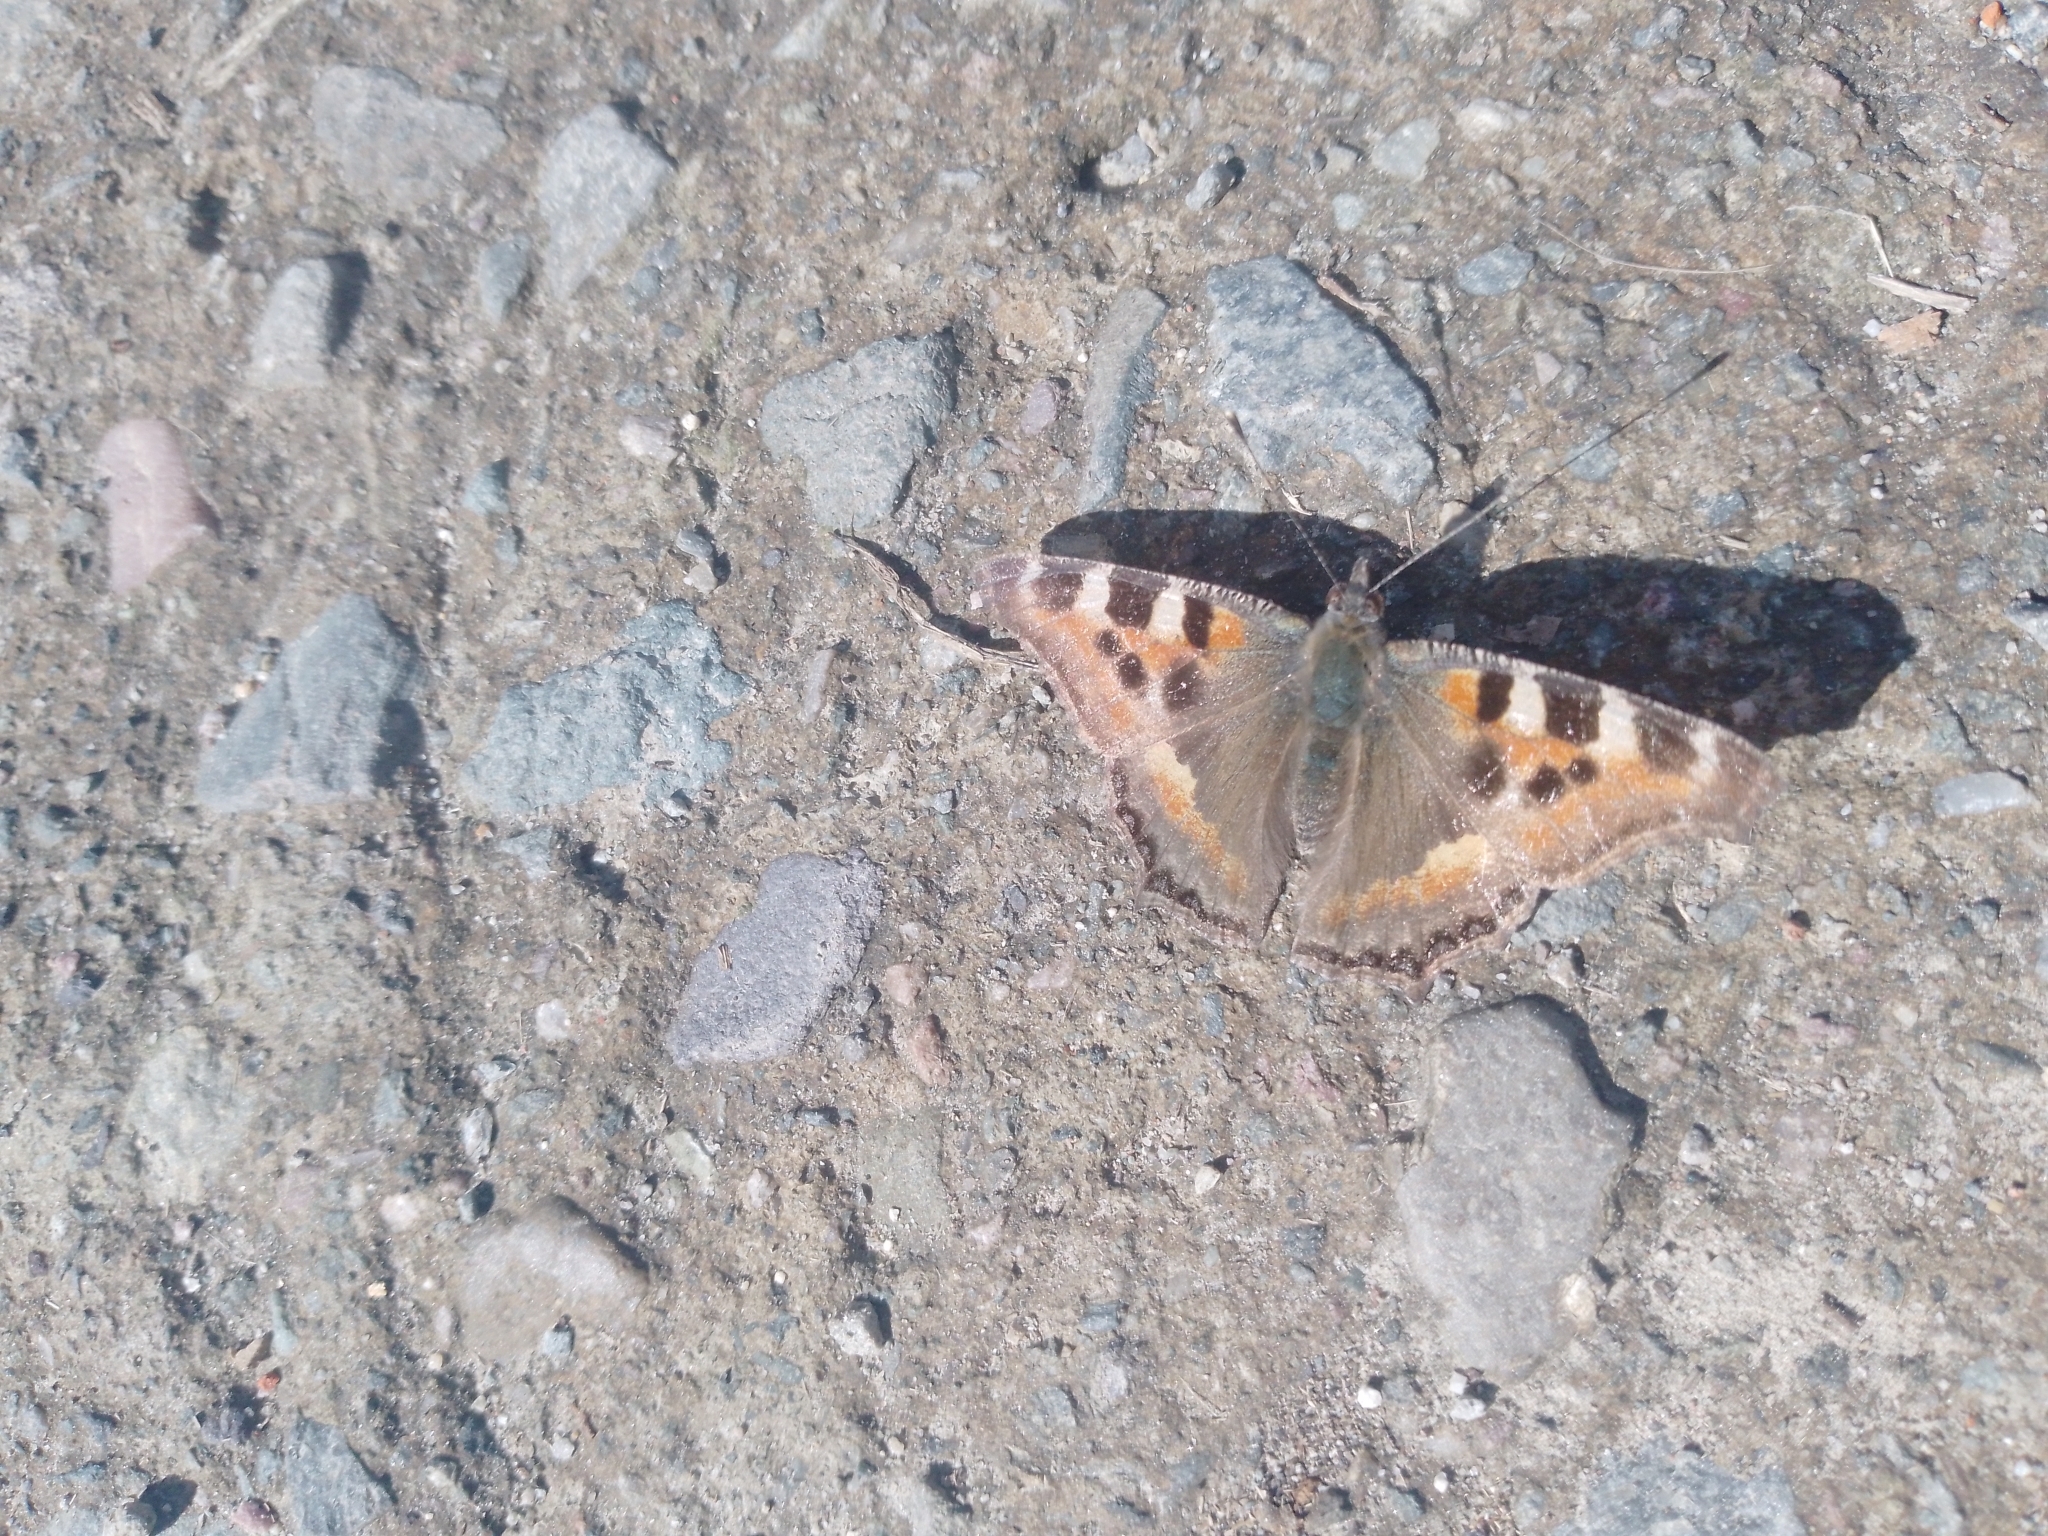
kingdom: Animalia
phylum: Arthropoda
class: Insecta
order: Lepidoptera
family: Nymphalidae
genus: Aglais
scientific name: Aglais caschmirensis
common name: Indian tortoiseshell
